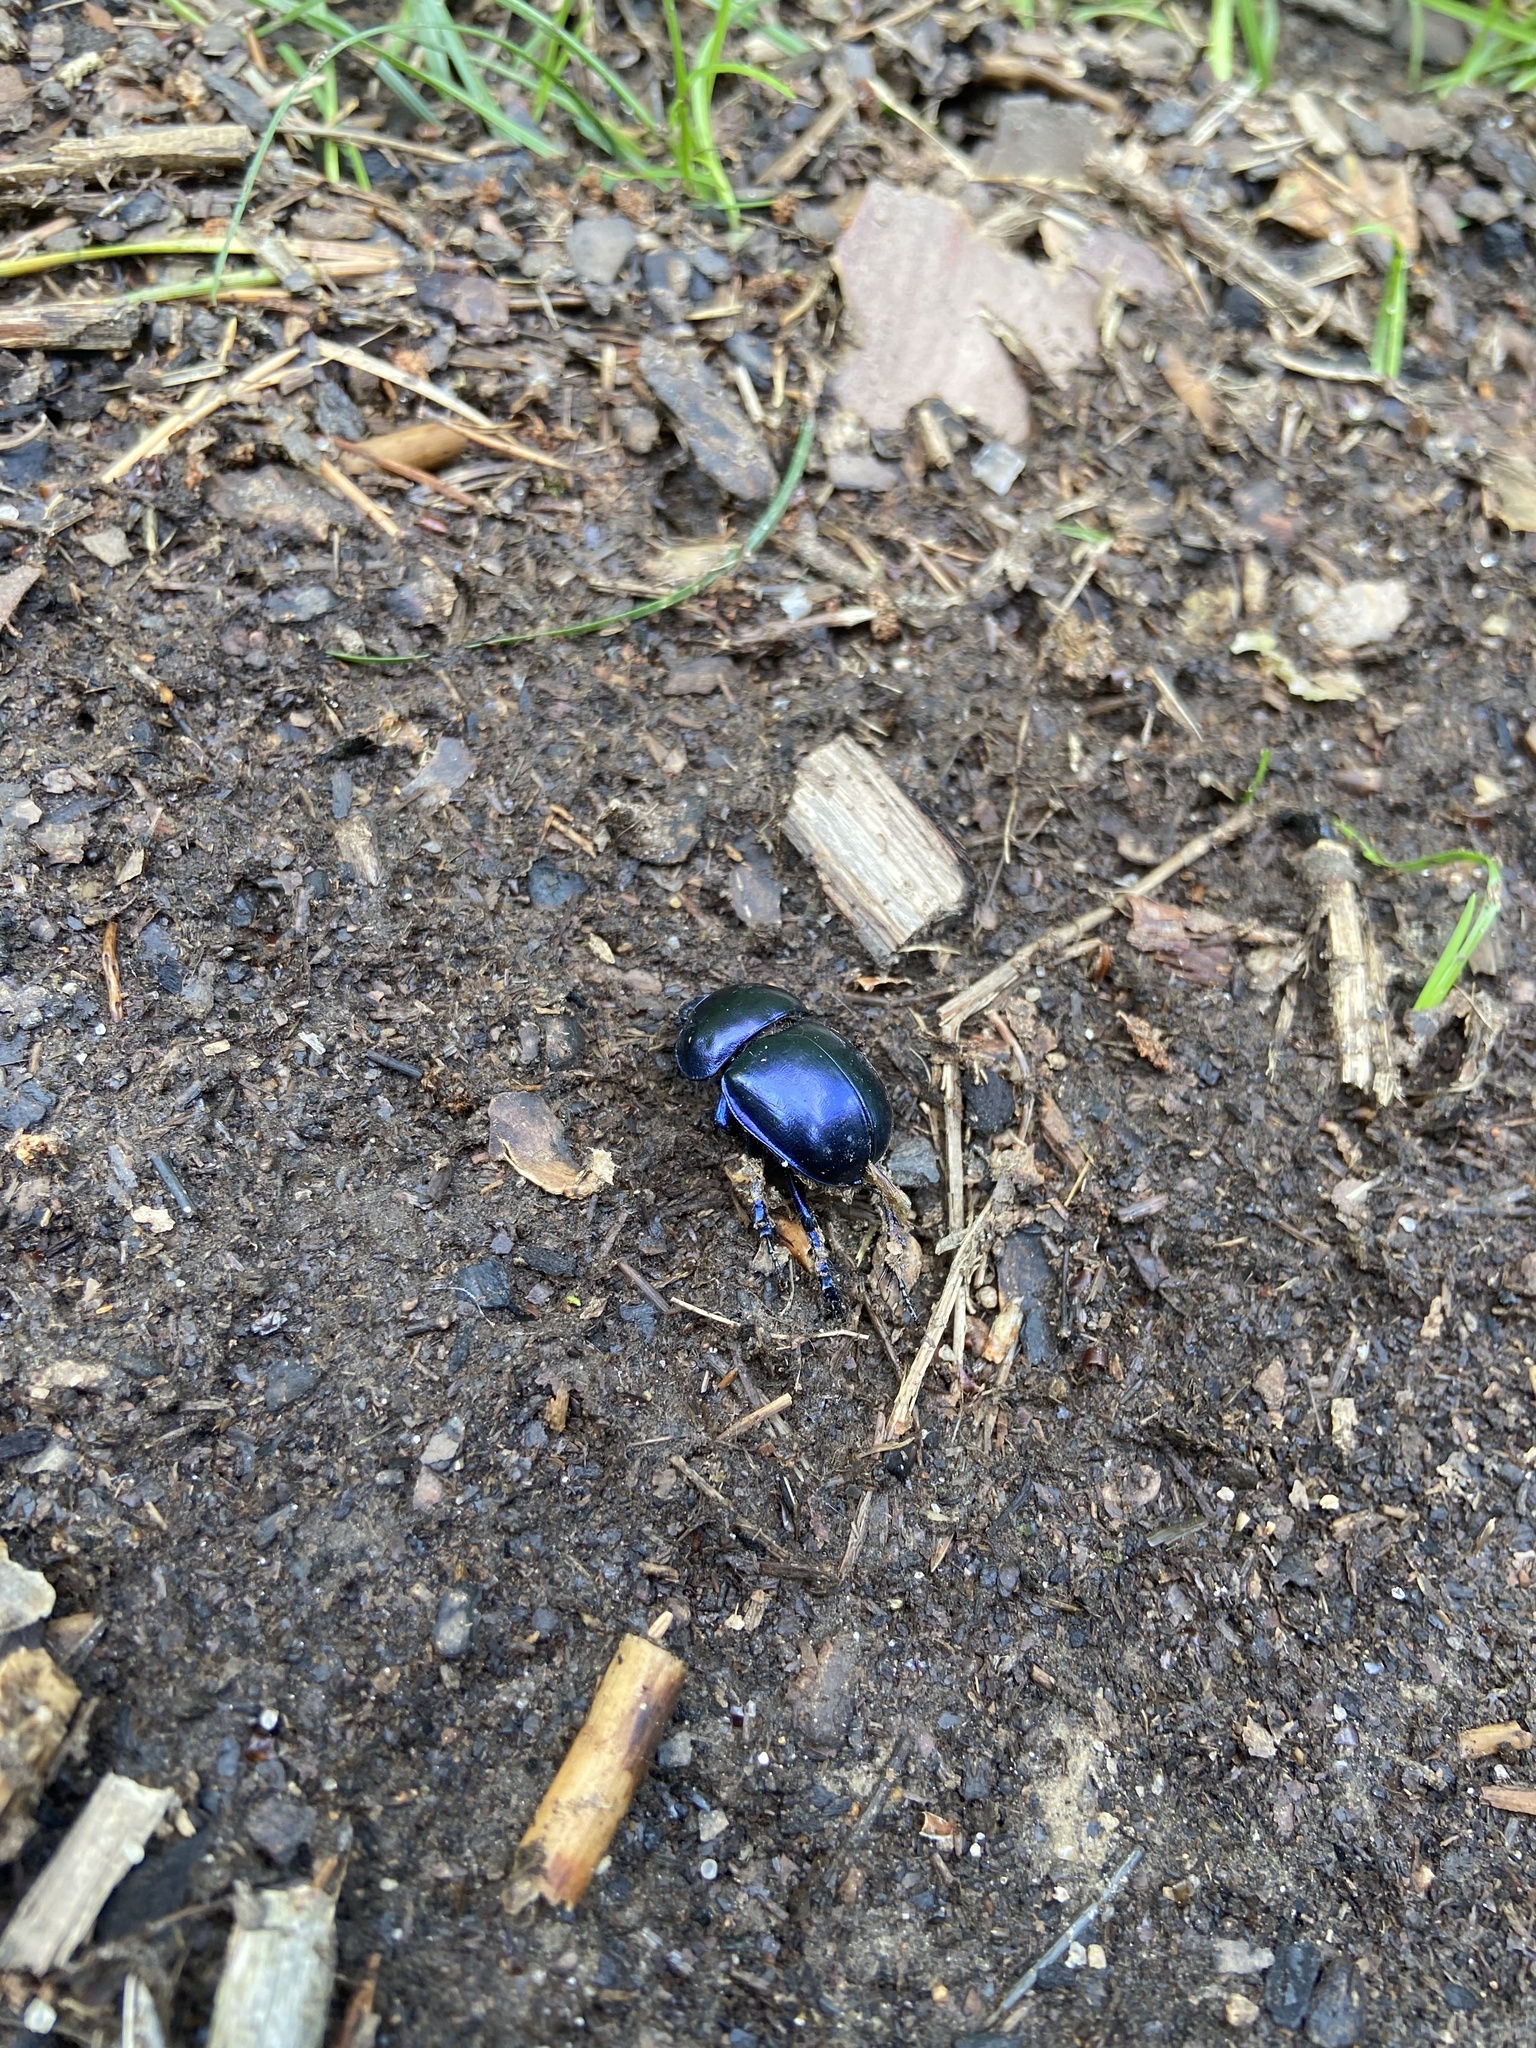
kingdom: Animalia
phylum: Arthropoda
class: Insecta
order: Coleoptera
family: Geotrupidae
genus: Trypocopris
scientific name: Trypocopris vernalis
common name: Spring dumbledor
